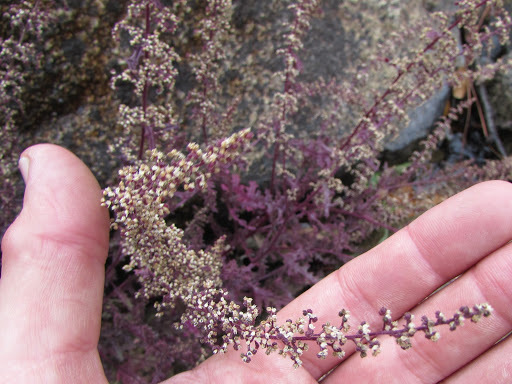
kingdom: Plantae
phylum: Tracheophyta
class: Magnoliopsida
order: Caryophyllales
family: Amaranthaceae
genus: Dysphania
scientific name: Dysphania botrys
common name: Feather-geranium
